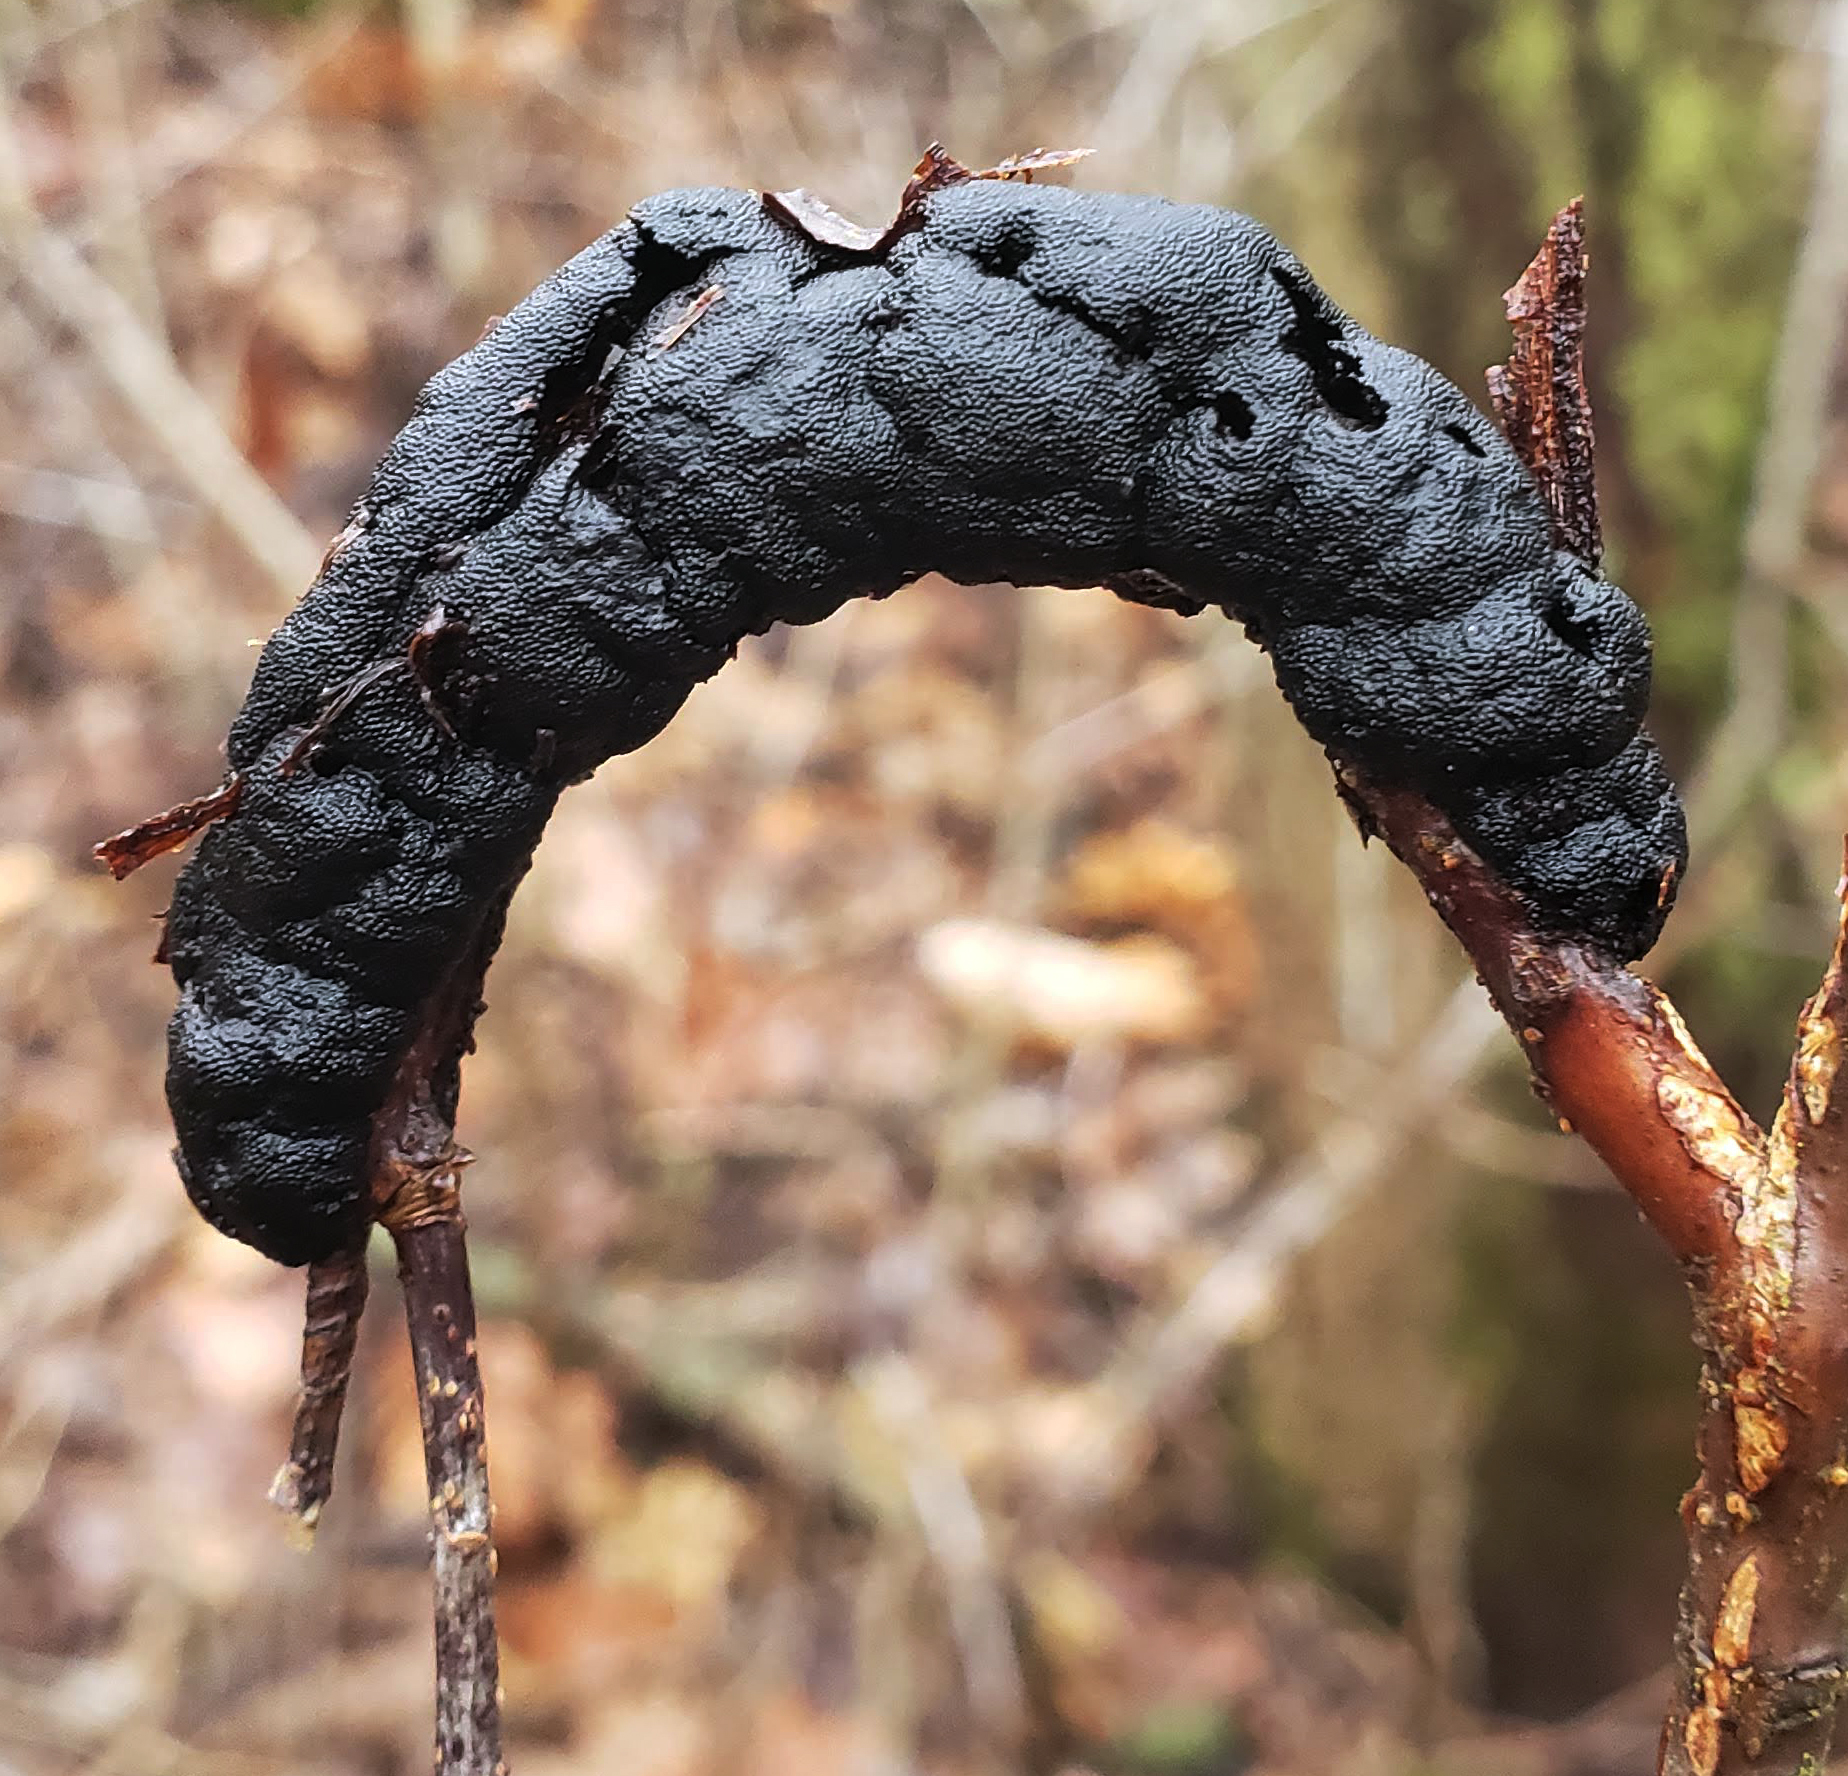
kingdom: Fungi
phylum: Ascomycota
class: Dothideomycetes
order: Venturiales
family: Venturiaceae
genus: Apiosporina
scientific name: Apiosporina morbosa
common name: Black knot
